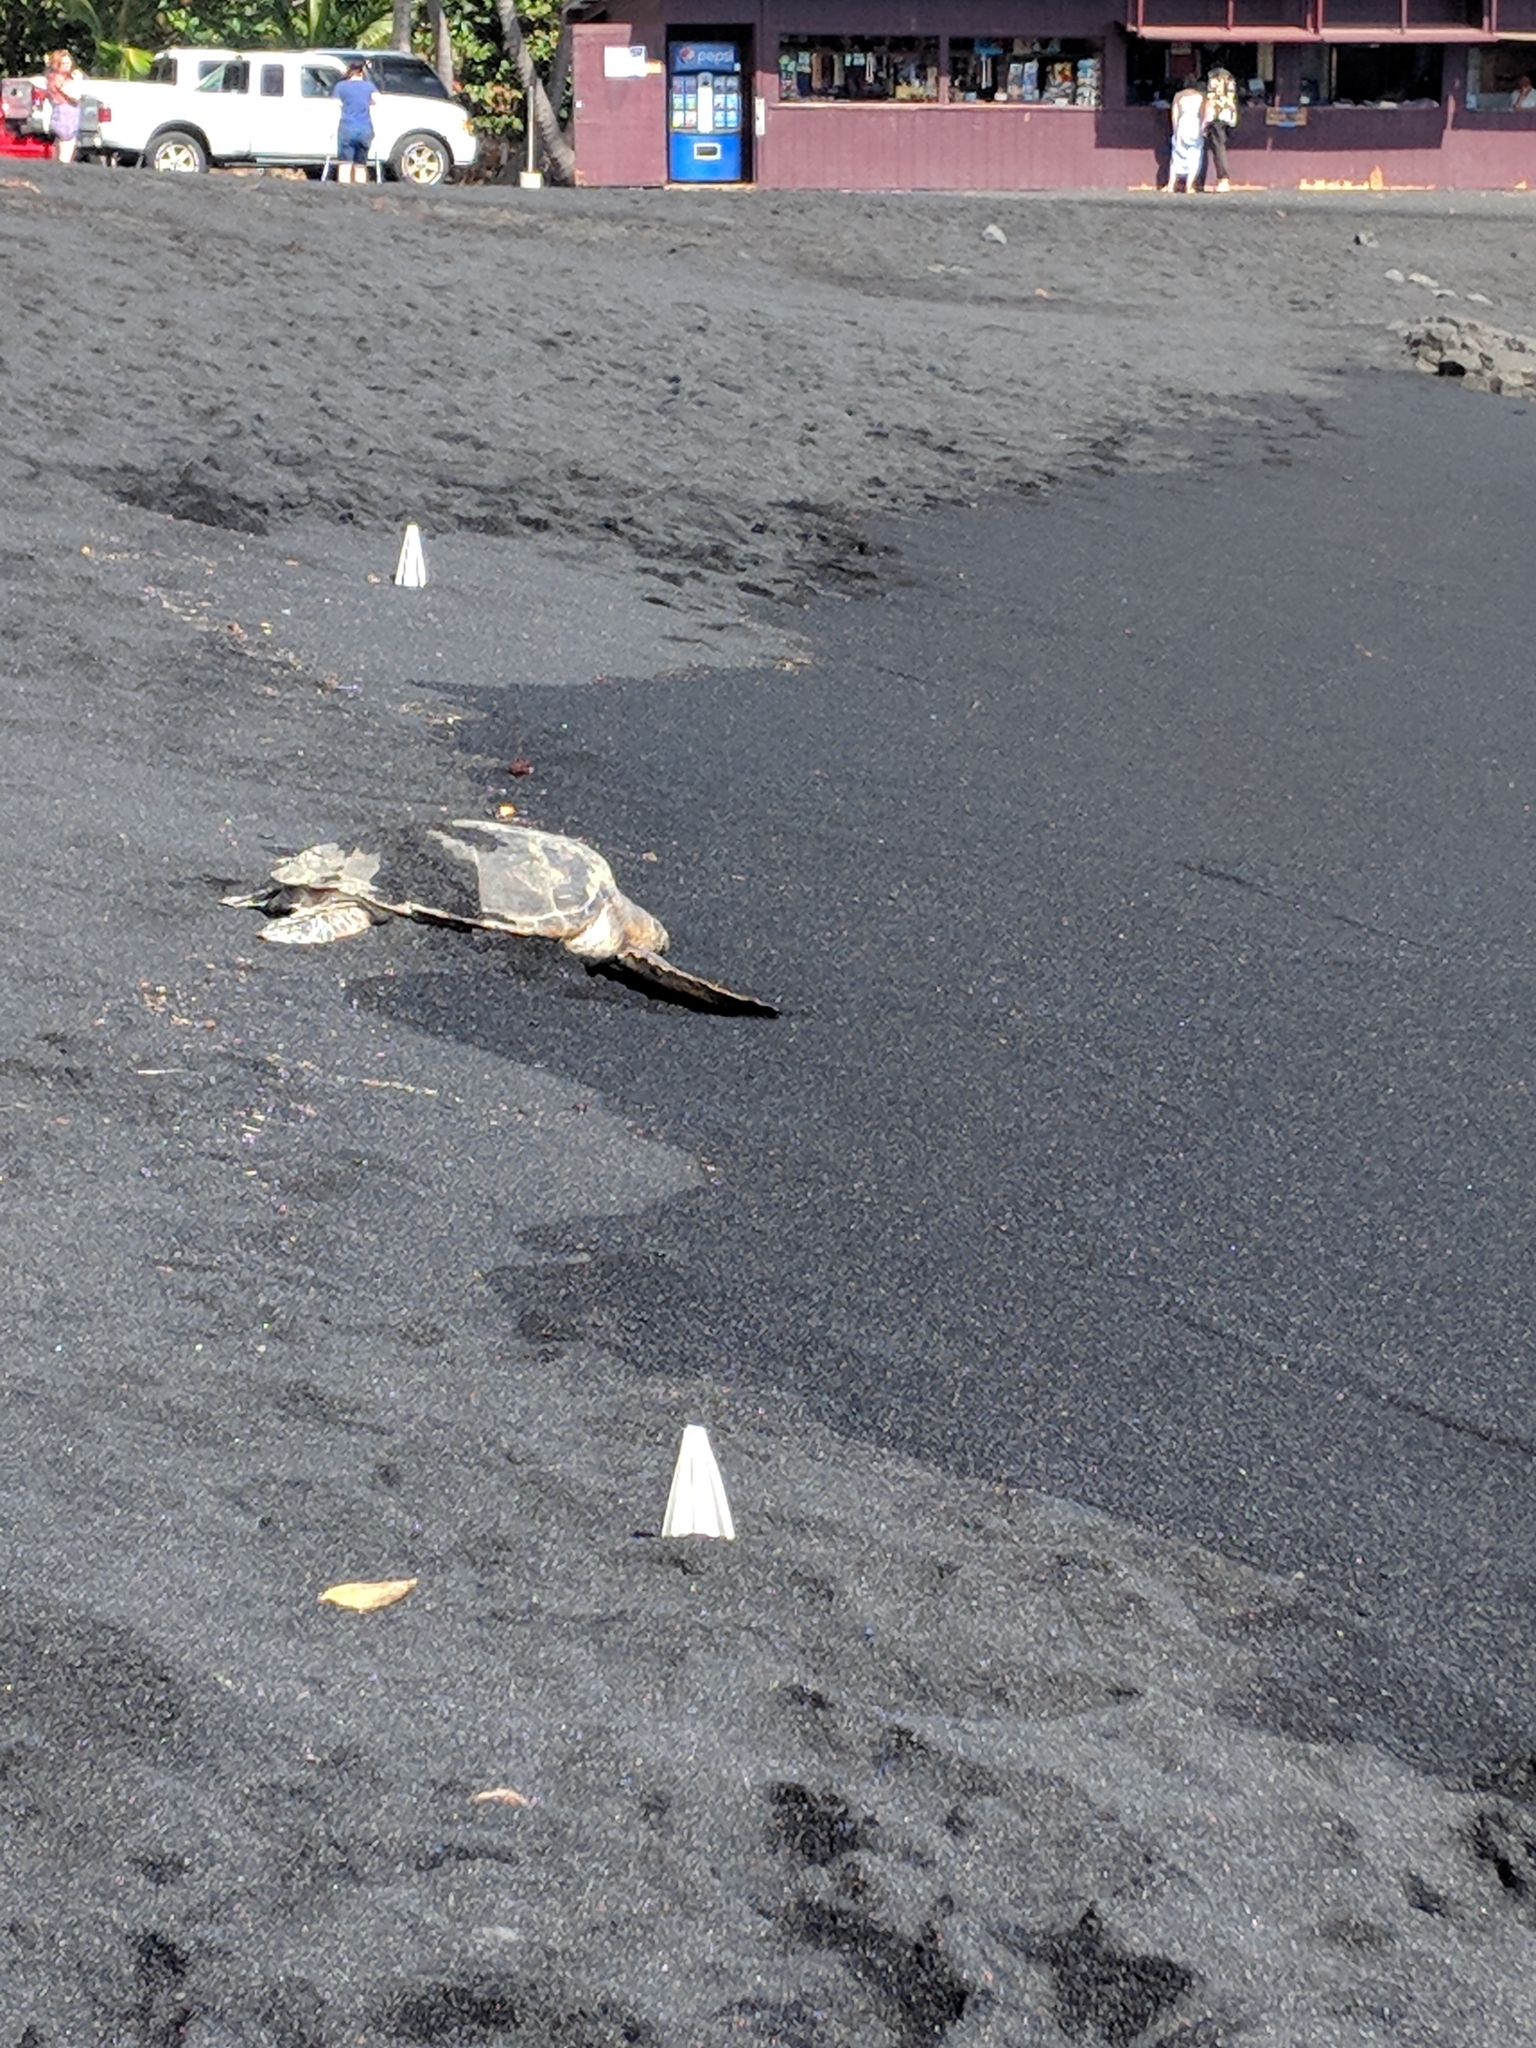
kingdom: Animalia
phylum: Chordata
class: Testudines
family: Cheloniidae
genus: Chelonia
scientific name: Chelonia mydas
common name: Green turtle
